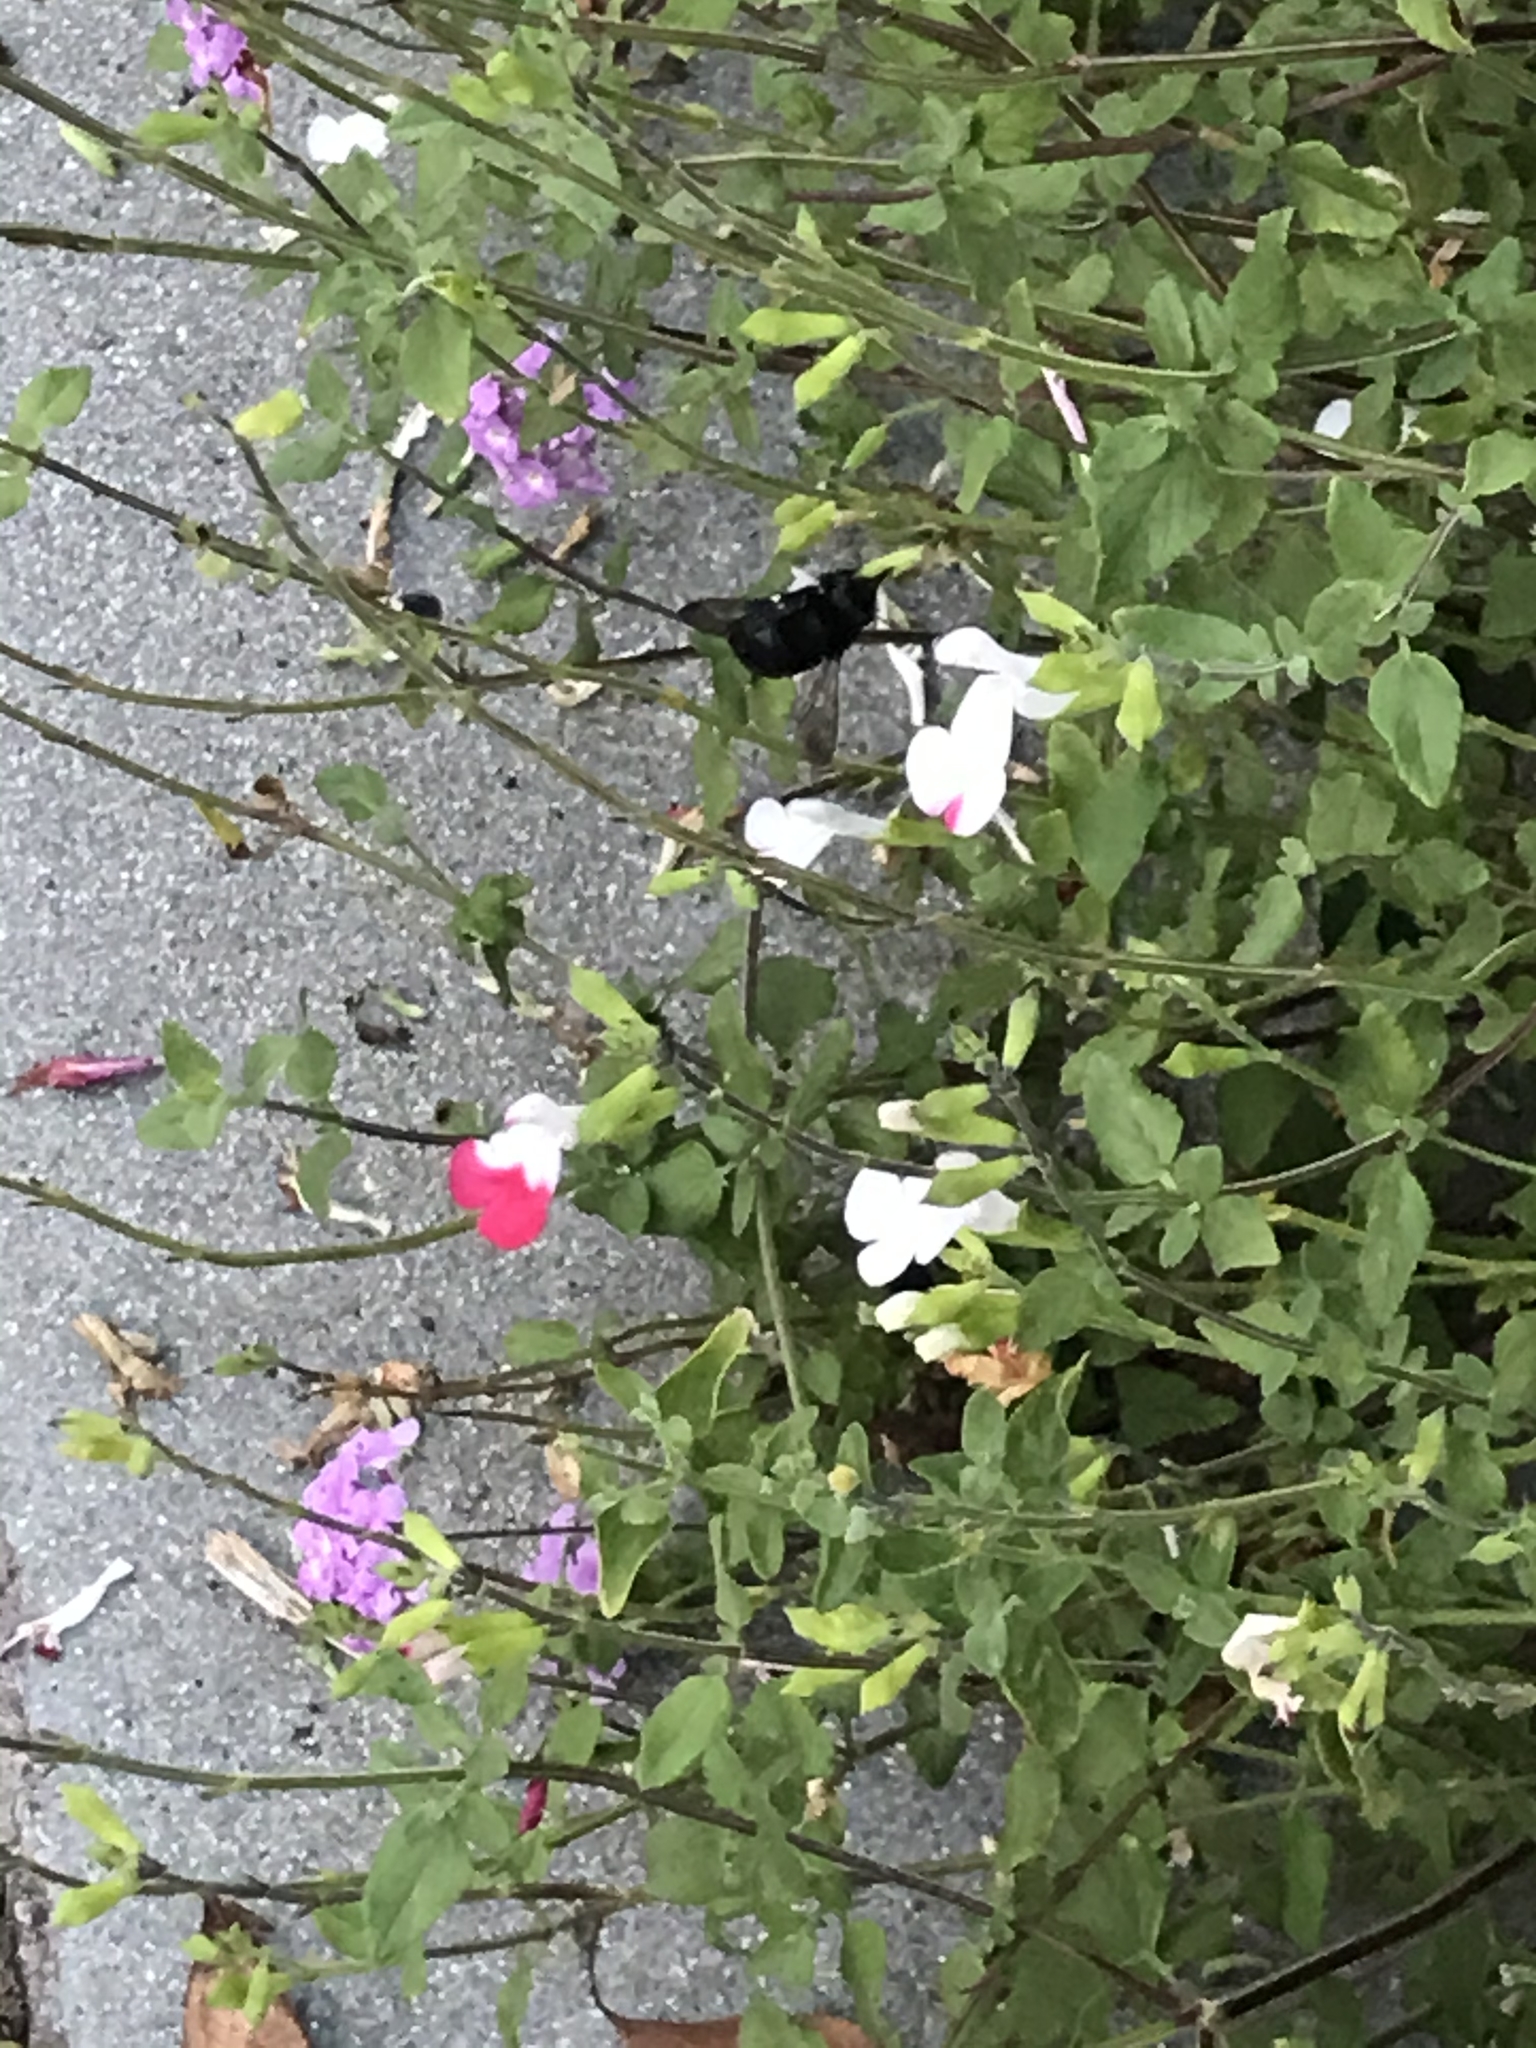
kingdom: Animalia
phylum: Arthropoda
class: Insecta
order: Hymenoptera
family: Apidae
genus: Xylocopa
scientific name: Xylocopa tabaniformis
